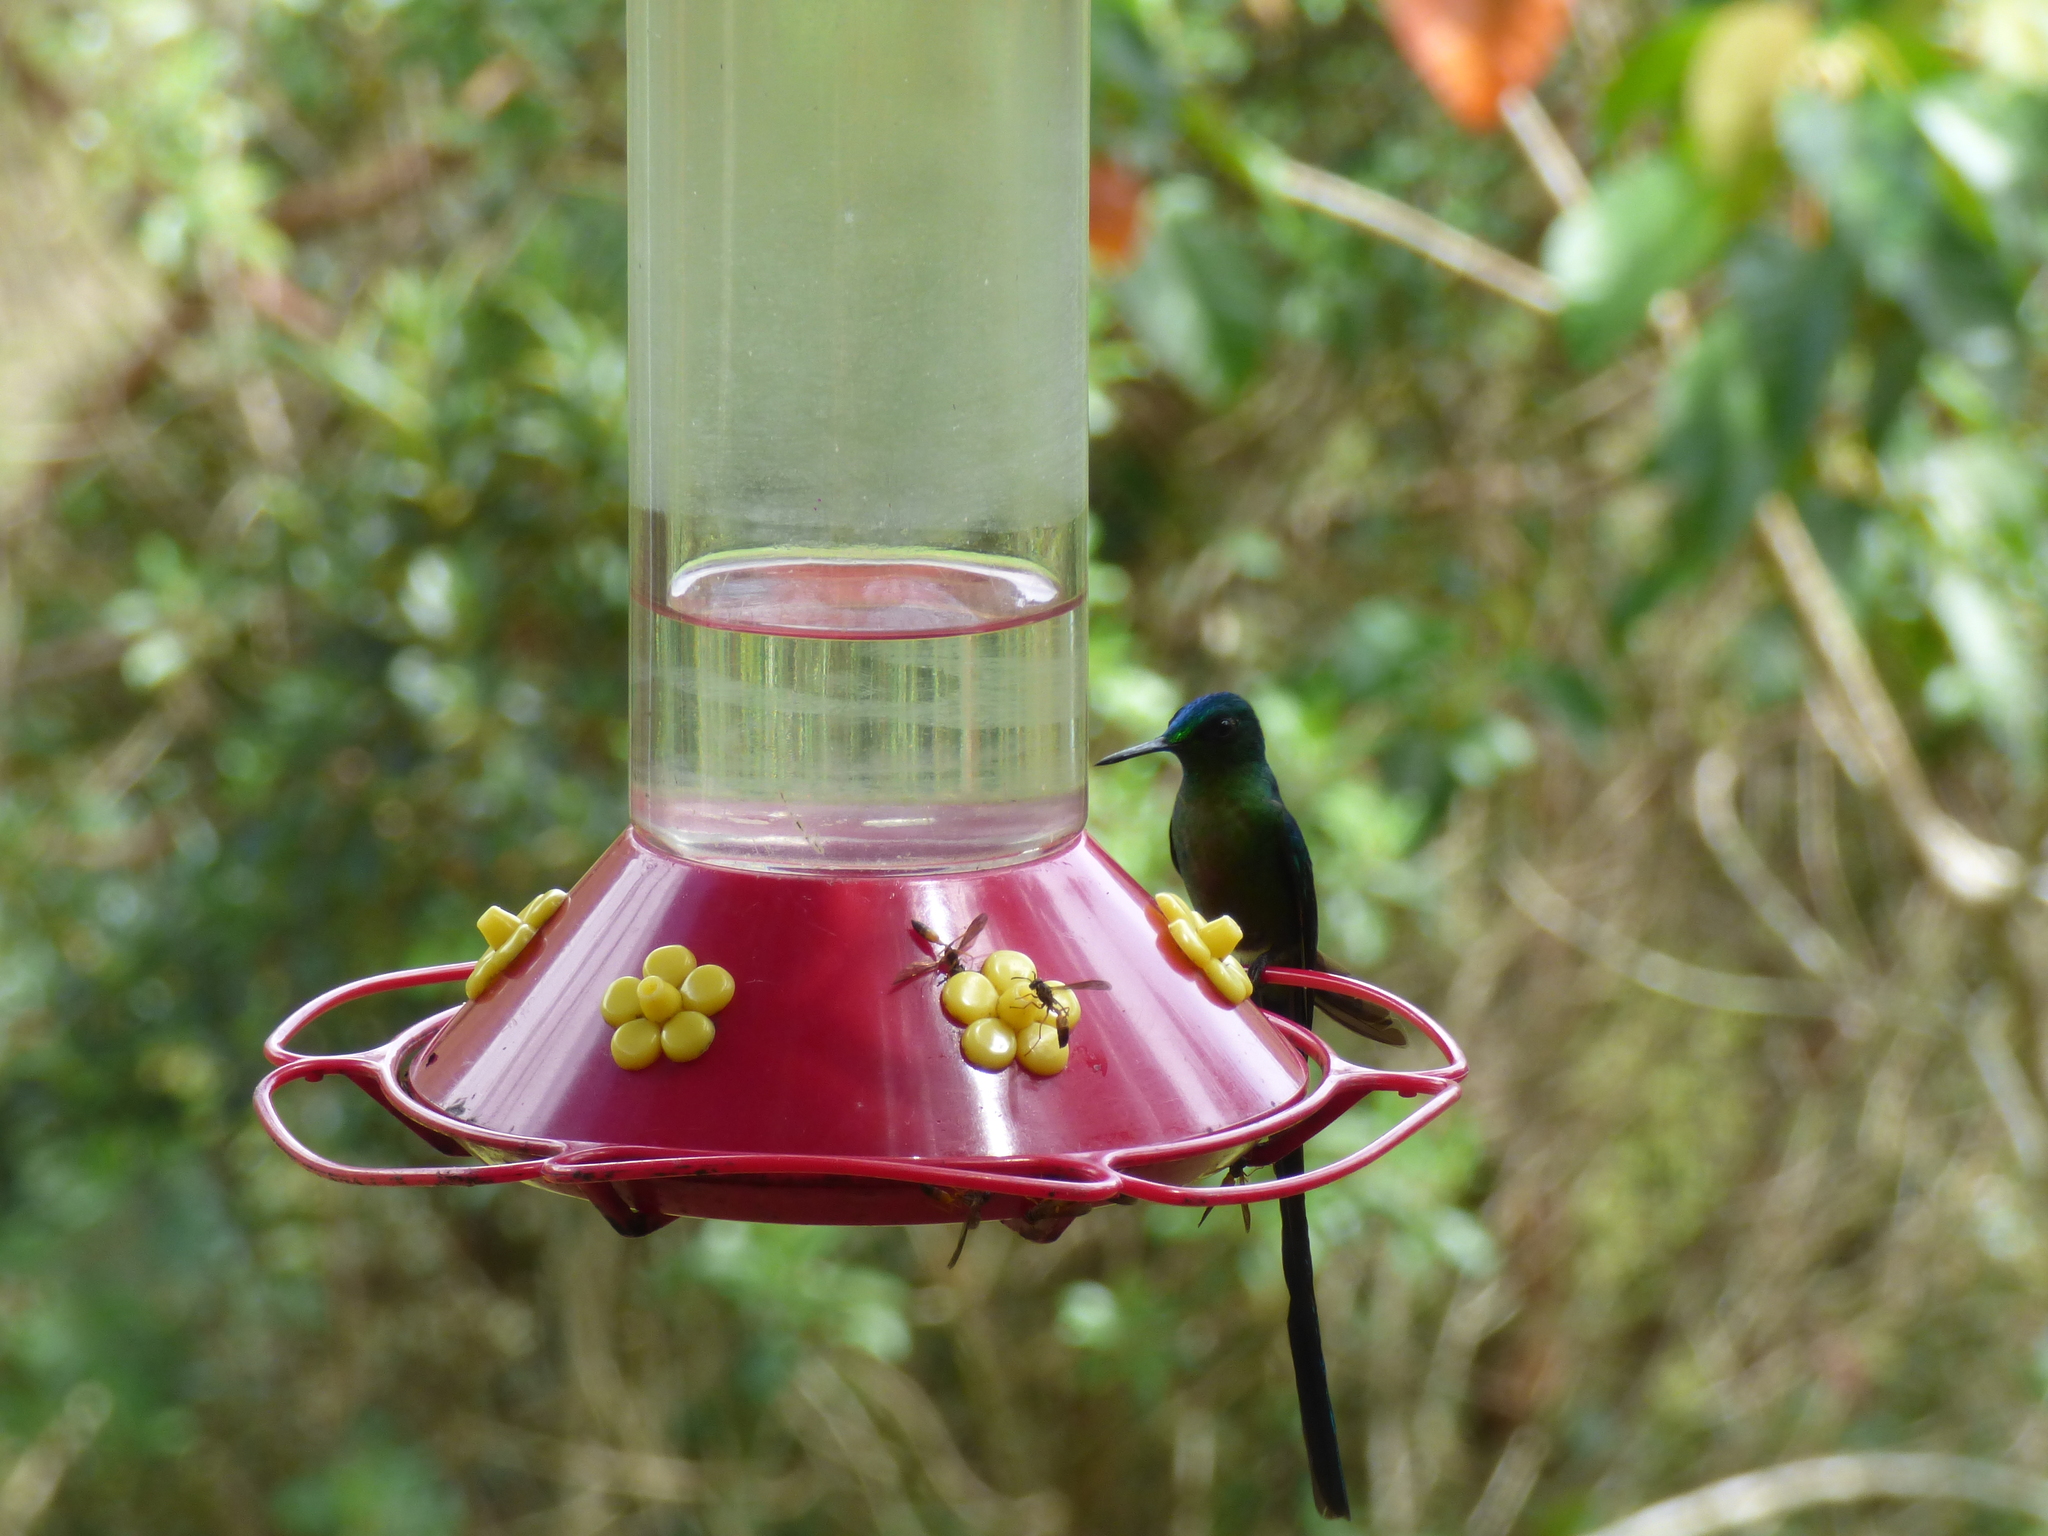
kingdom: Animalia
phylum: Chordata
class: Aves
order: Apodiformes
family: Trochilidae
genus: Aglaiocercus
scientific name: Aglaiocercus kingii
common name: Long-tailed sylph
